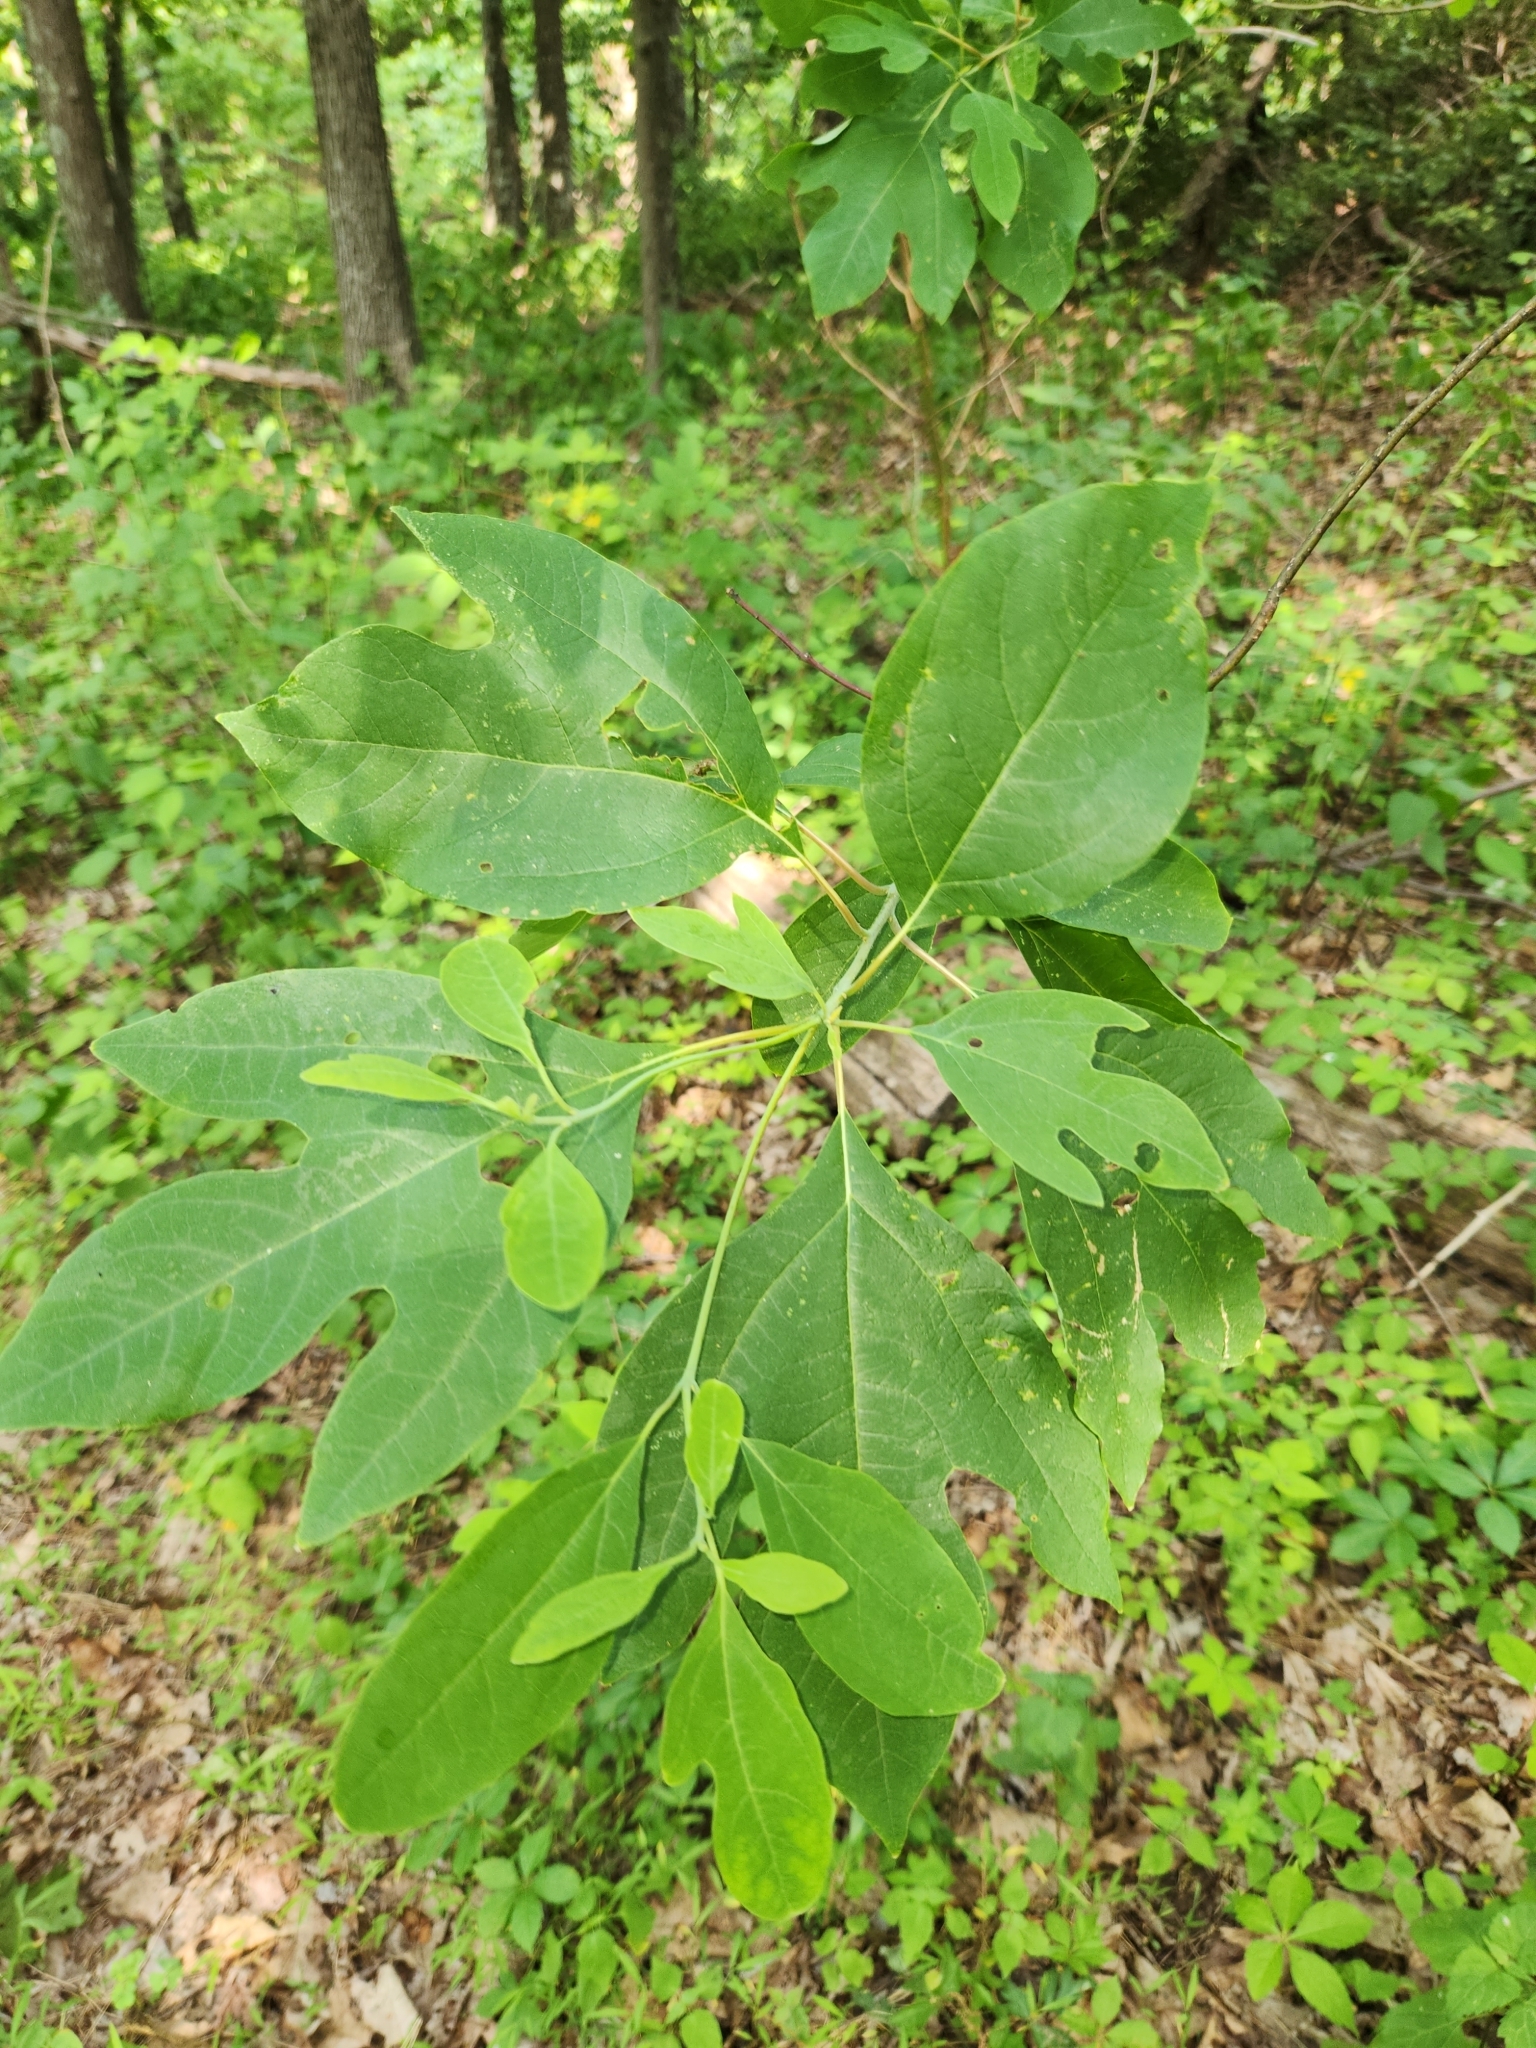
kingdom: Plantae
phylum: Tracheophyta
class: Magnoliopsida
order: Laurales
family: Lauraceae
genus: Sassafras
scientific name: Sassafras albidum
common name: Sassafras
